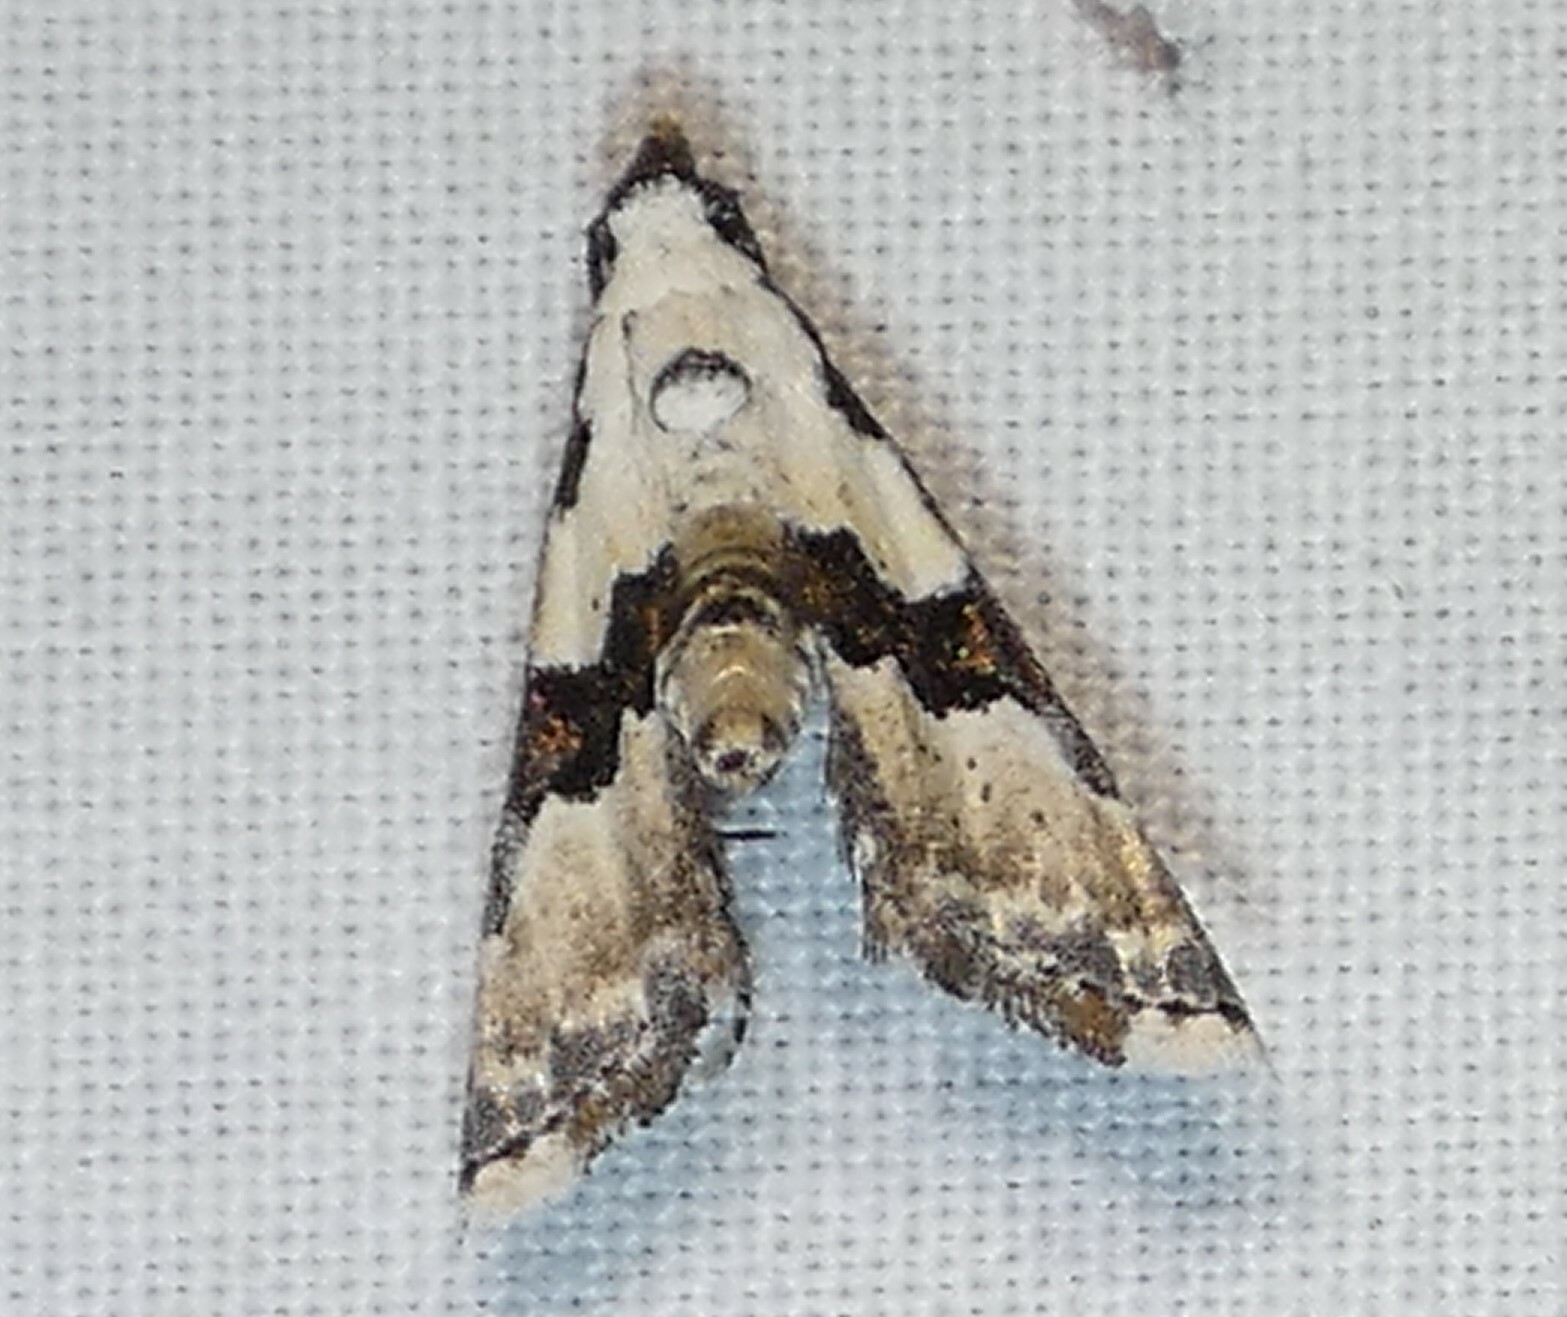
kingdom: Animalia
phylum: Arthropoda
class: Insecta
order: Lepidoptera
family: Noctuidae
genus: Nigetia
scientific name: Nigetia formosalis
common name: Thin-winged owlet
